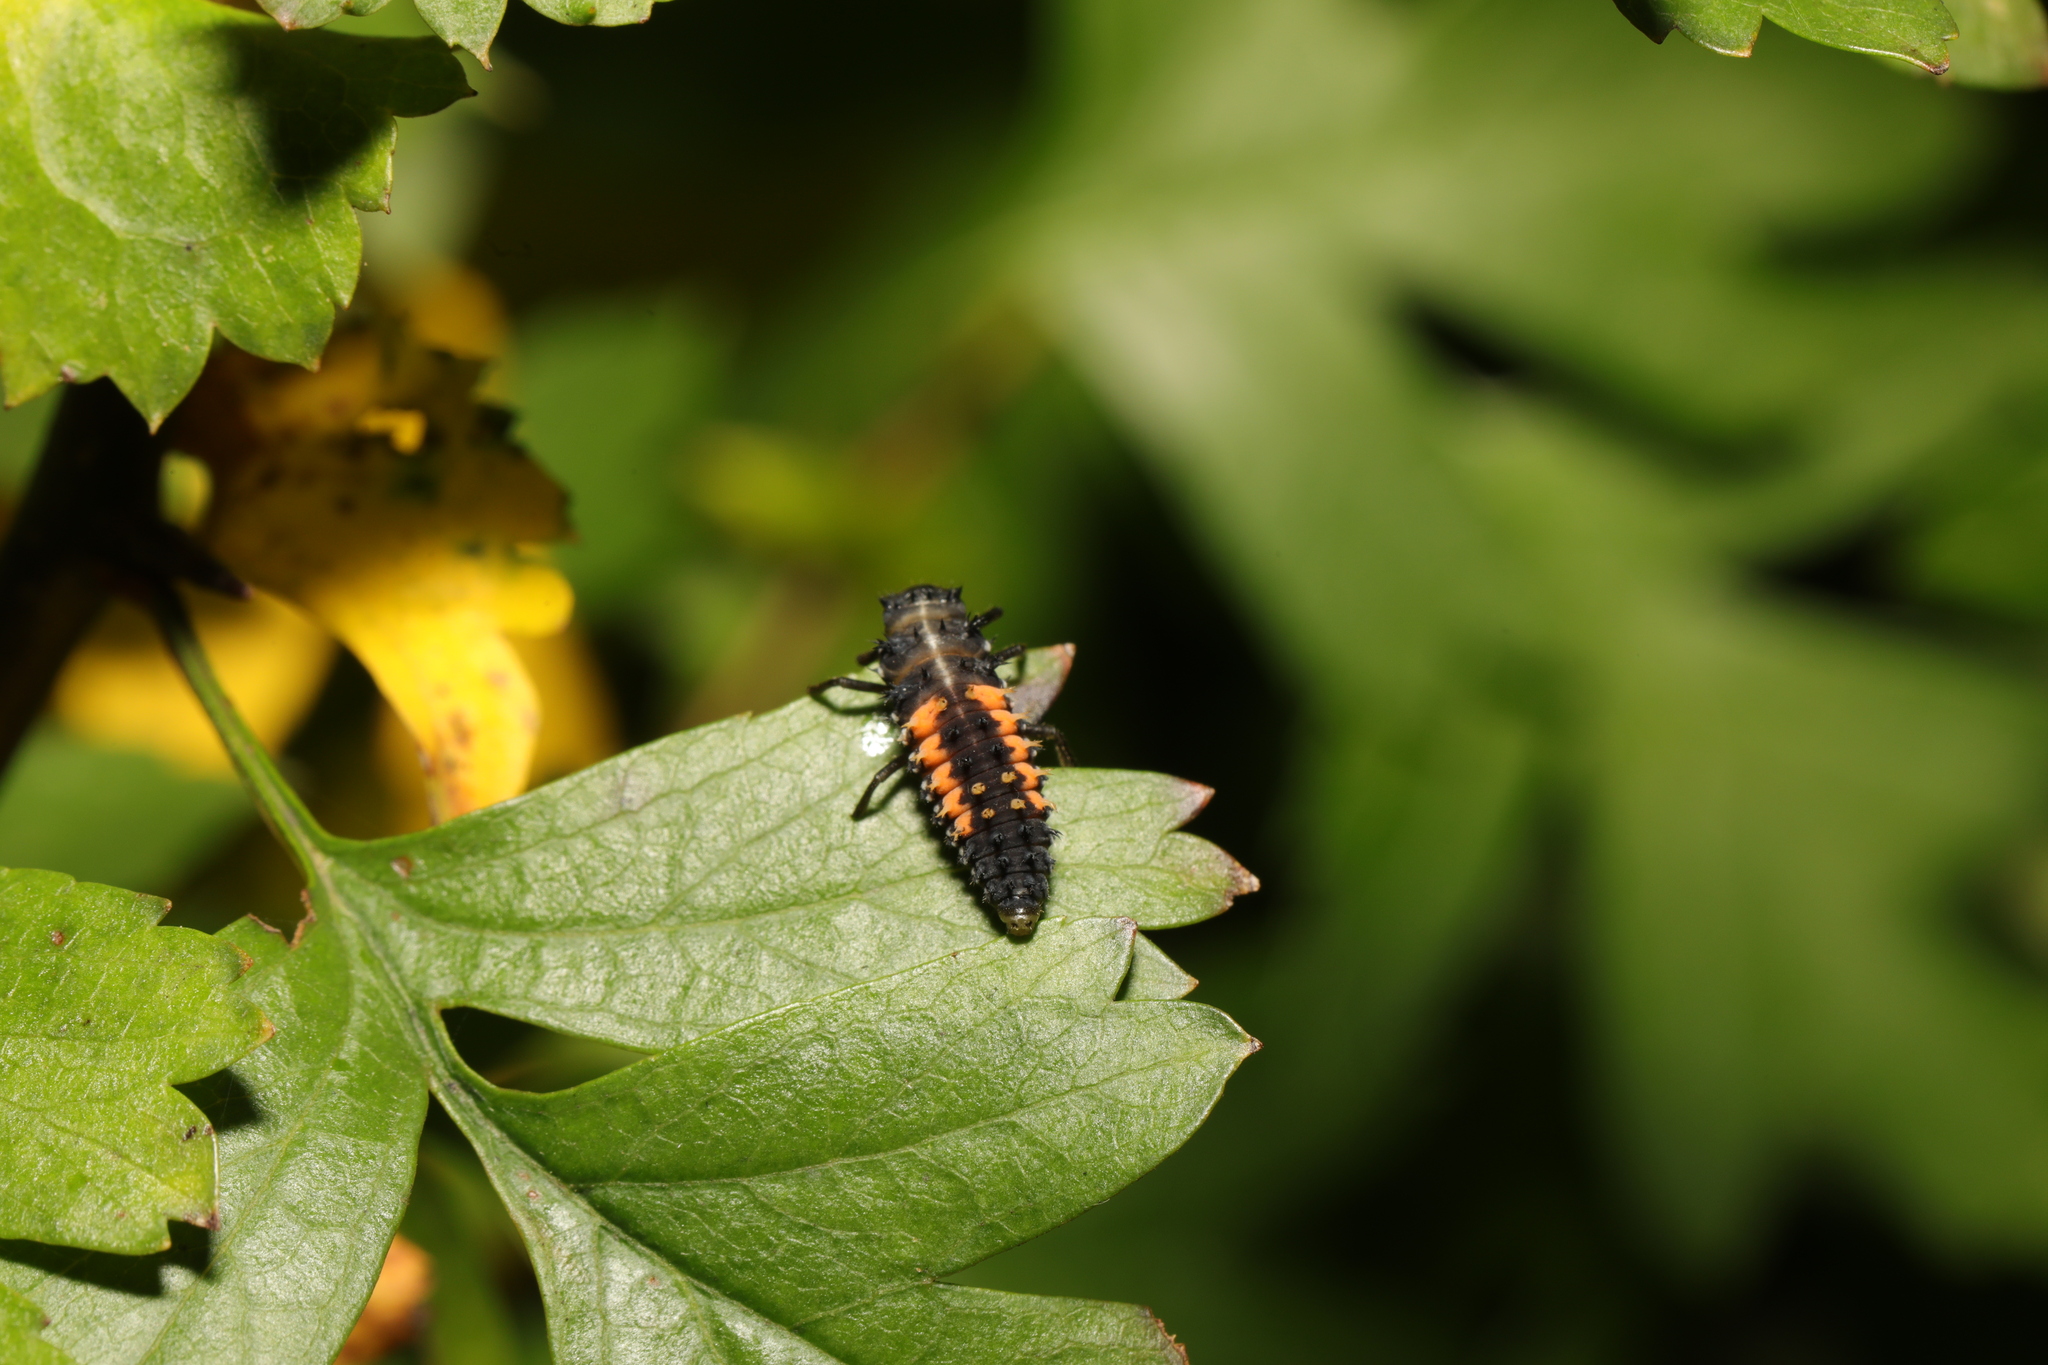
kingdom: Animalia
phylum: Arthropoda
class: Insecta
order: Coleoptera
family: Coccinellidae
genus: Harmonia
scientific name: Harmonia axyridis
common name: Harlequin ladybird
